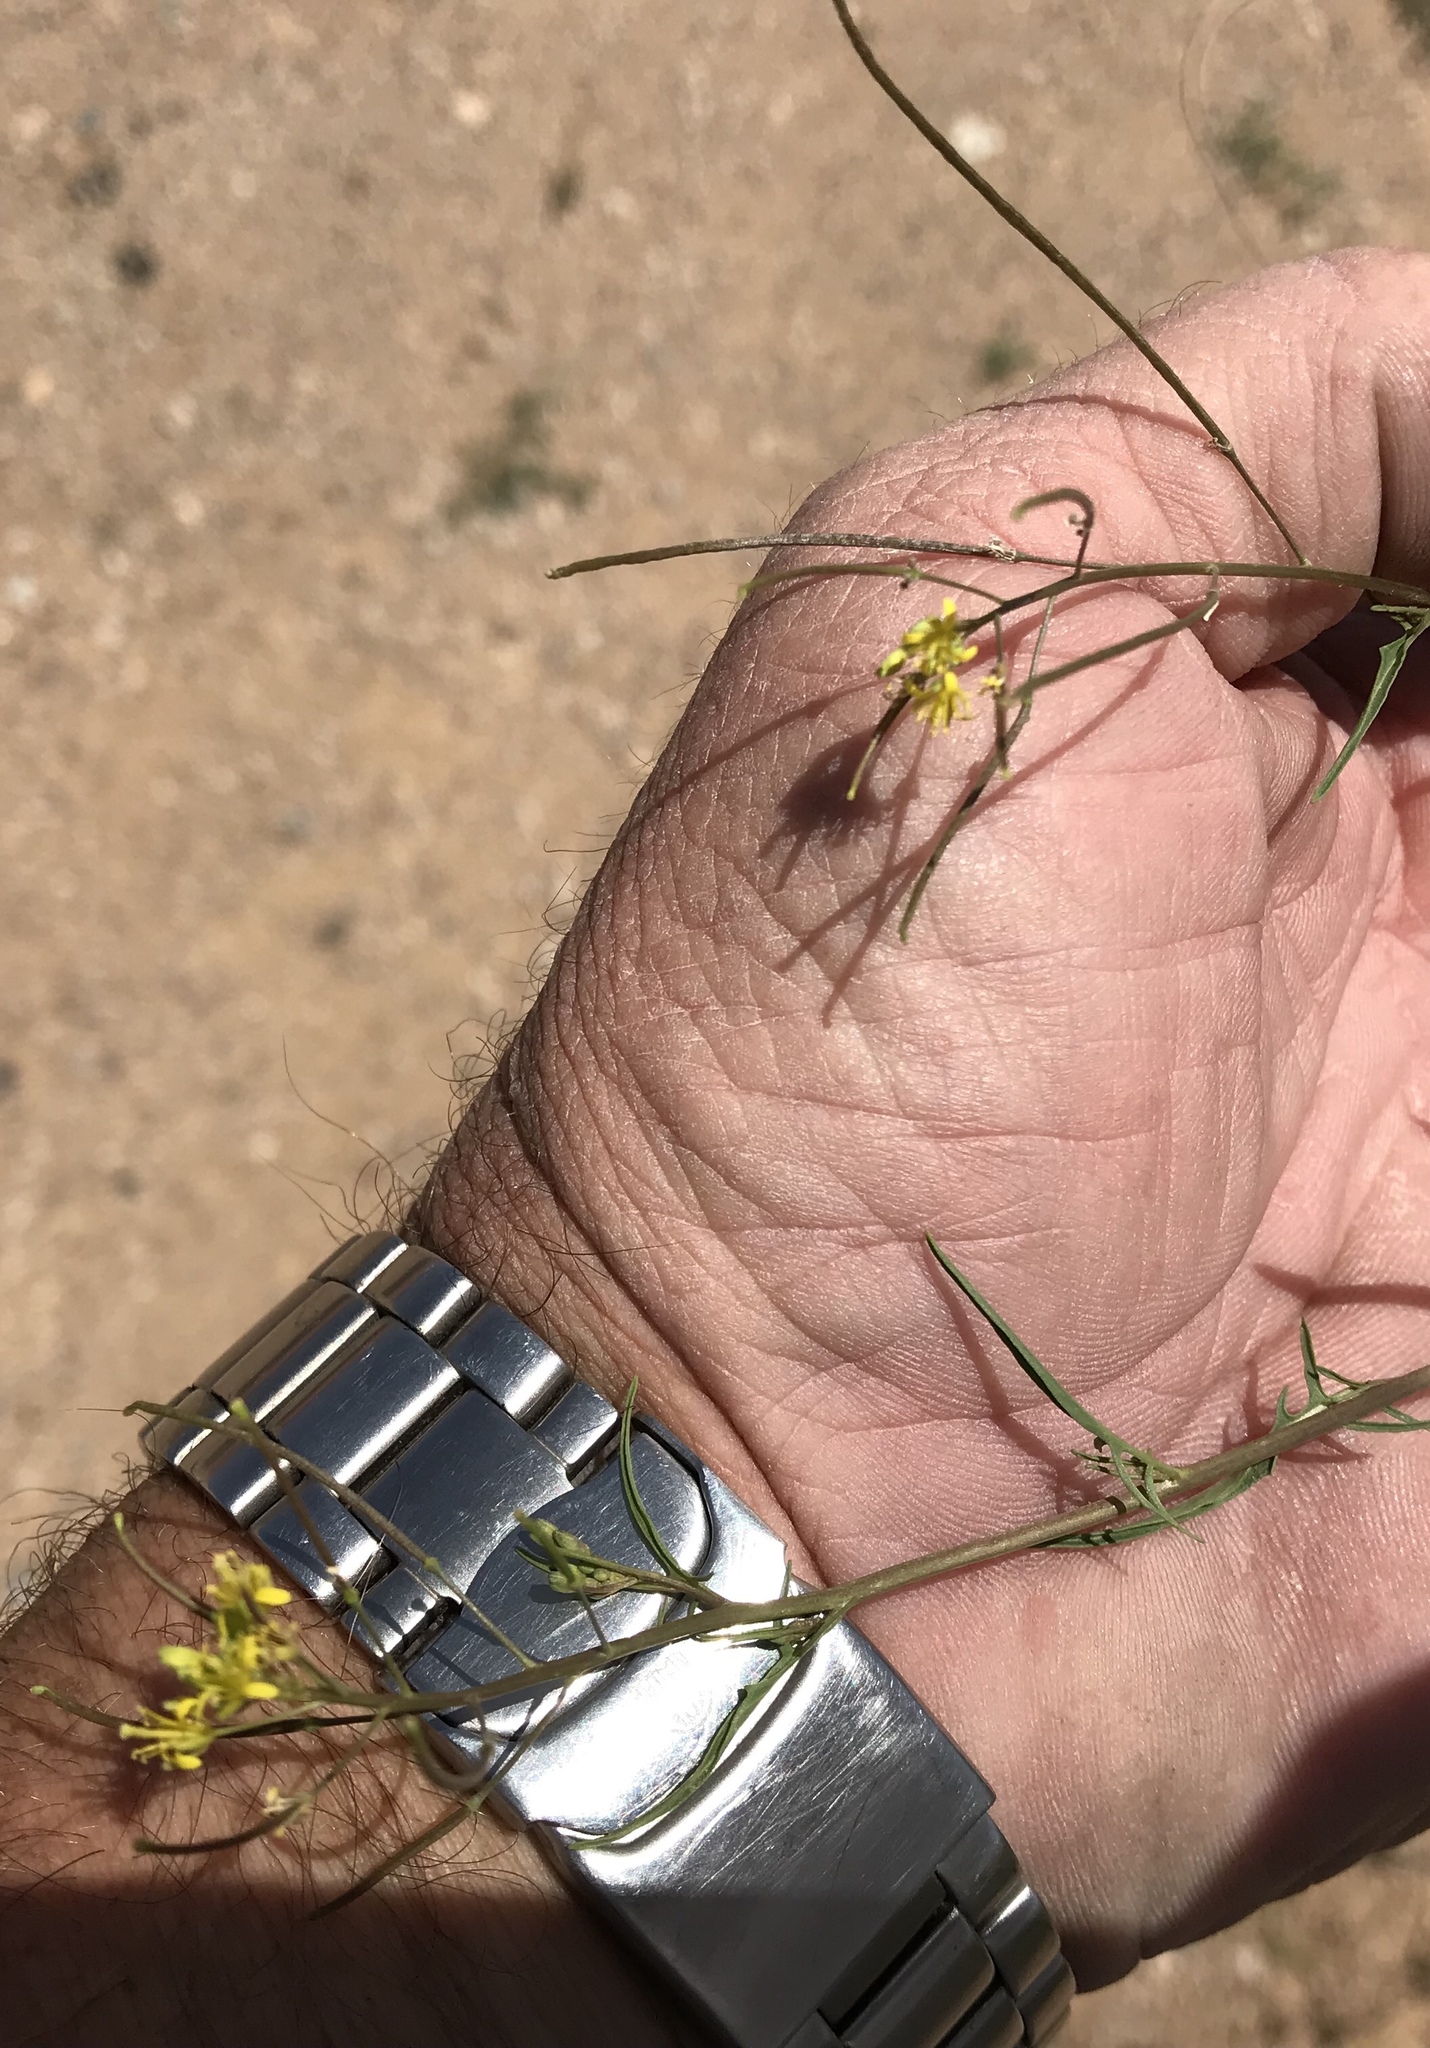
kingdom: Plantae
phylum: Tracheophyta
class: Magnoliopsida
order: Brassicales
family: Brassicaceae
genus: Sisymbrium
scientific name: Sisymbrium irio
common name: London rocket
